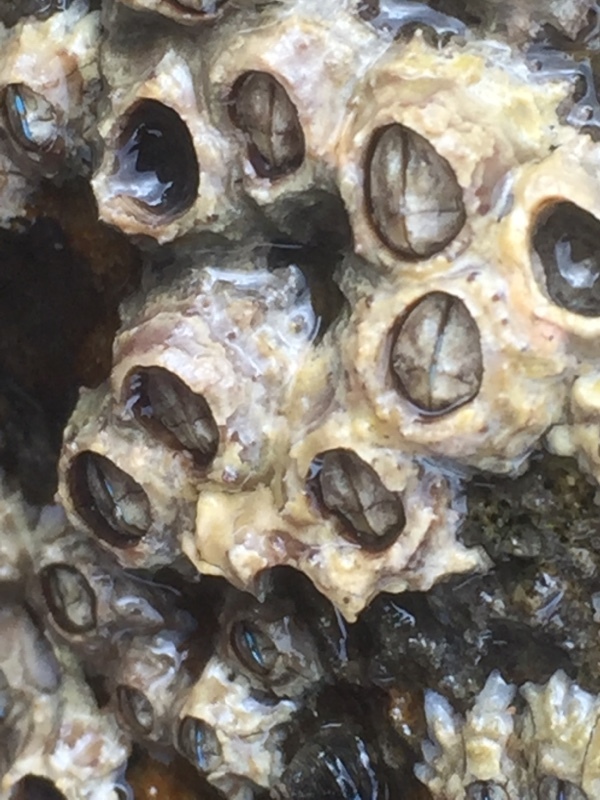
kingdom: Animalia
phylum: Arthropoda
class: Maxillopoda
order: Sessilia
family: Chthamalidae
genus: Chthamalus
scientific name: Chthamalus stellatus
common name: Poli's stellate barnacle
